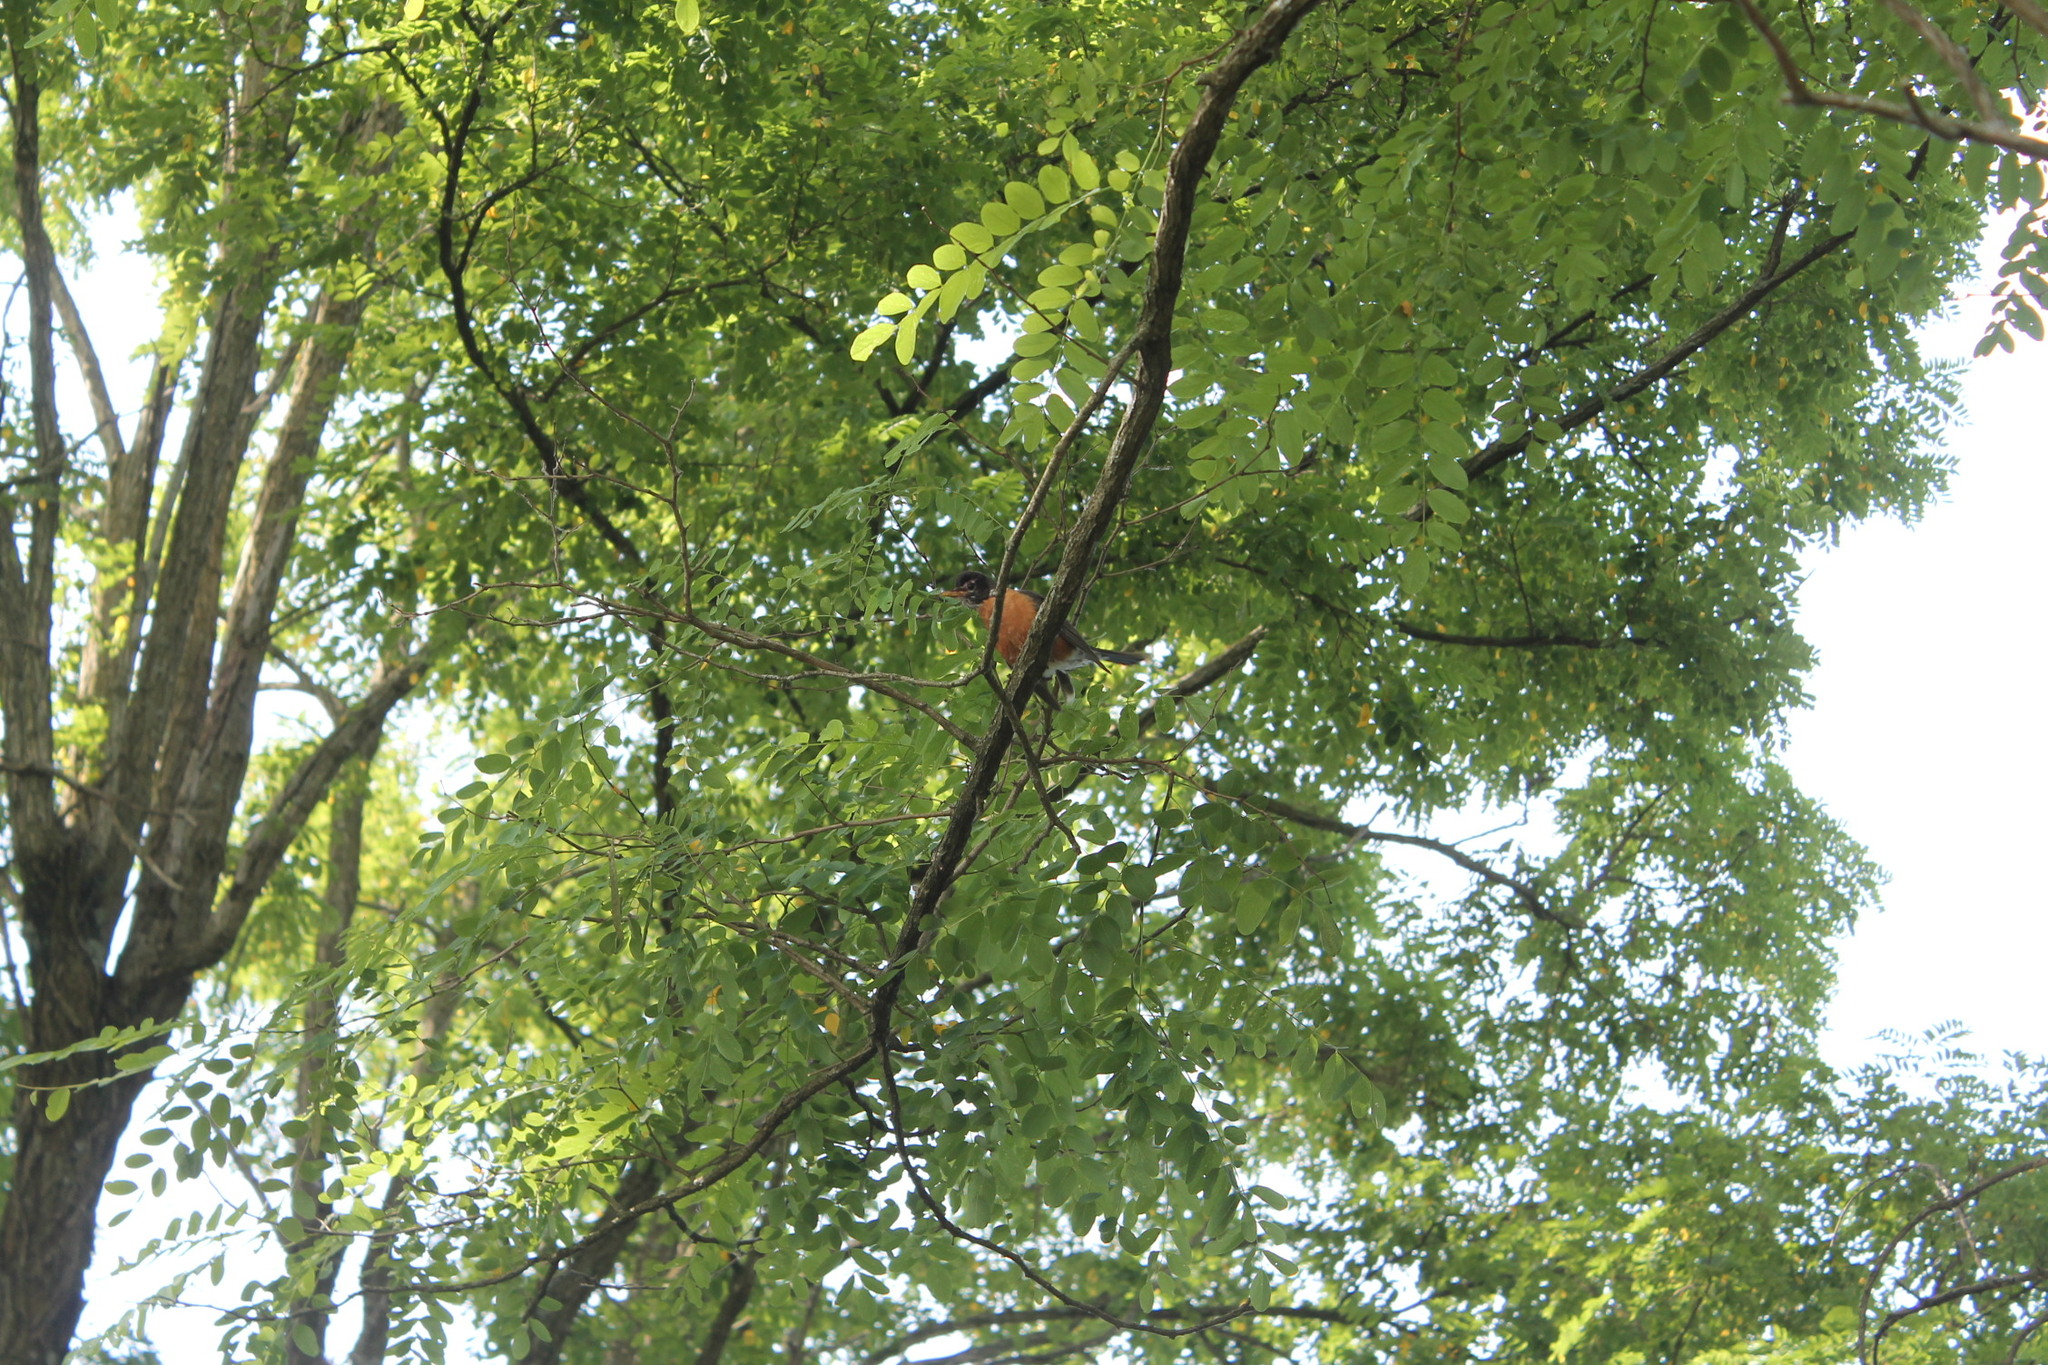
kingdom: Animalia
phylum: Chordata
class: Aves
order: Passeriformes
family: Turdidae
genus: Turdus
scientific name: Turdus migratorius
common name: American robin
